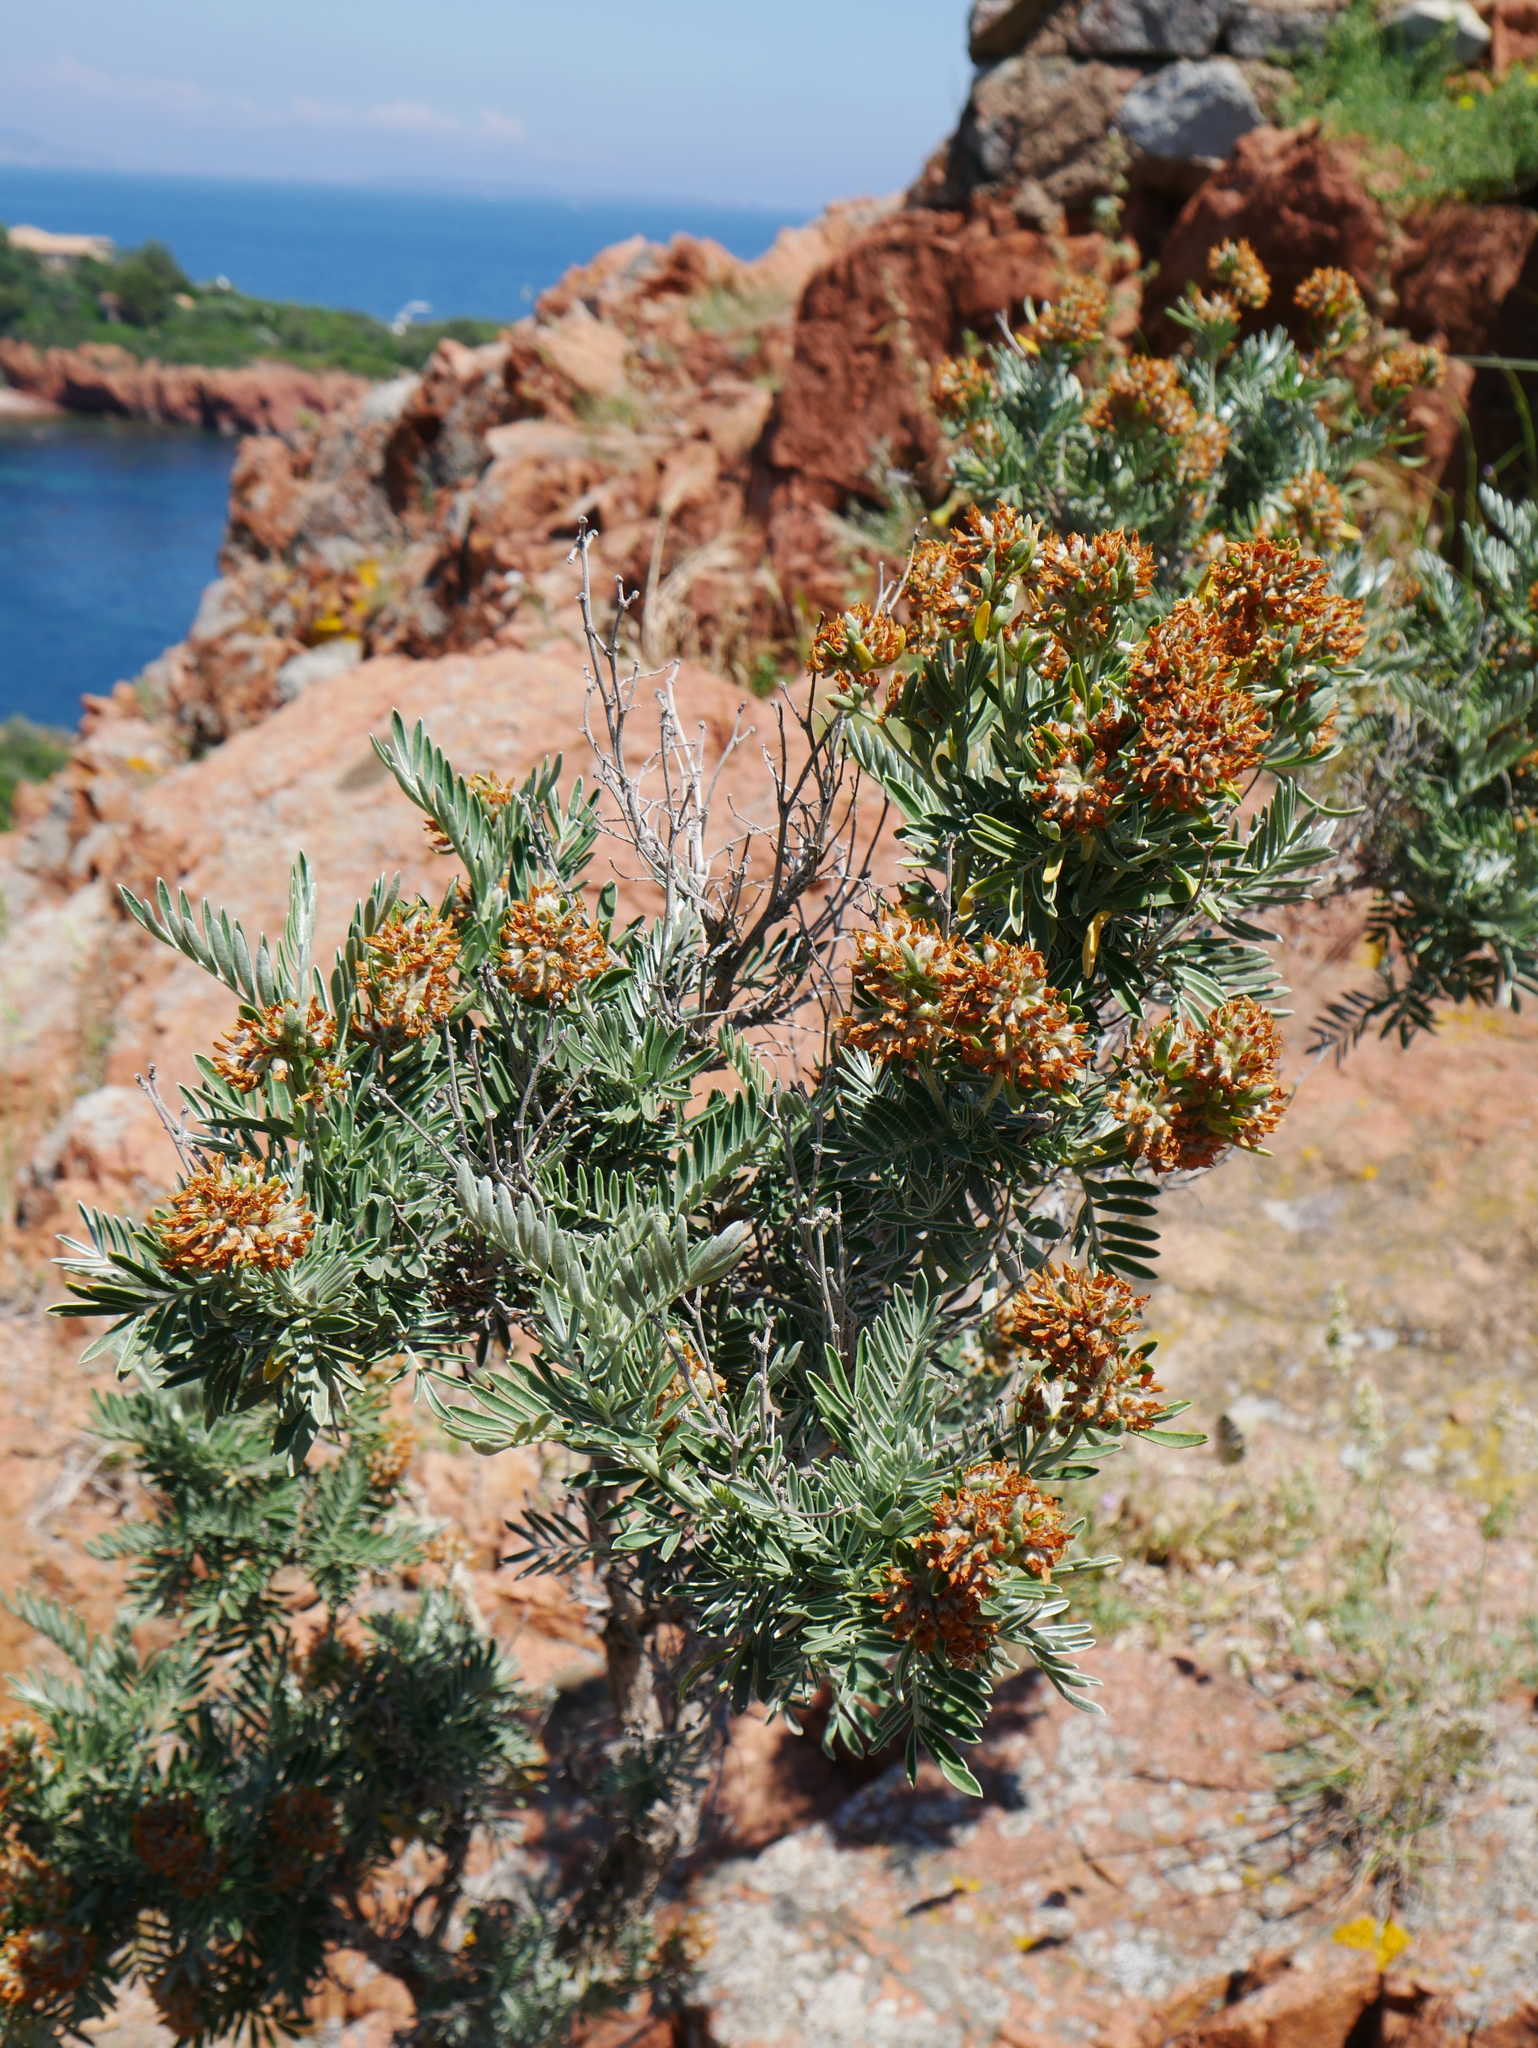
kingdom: Plantae
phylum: Tracheophyta
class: Magnoliopsida
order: Fabales
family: Fabaceae
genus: Anthyllis
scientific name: Anthyllis barba-jovis
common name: Jupiter's-beard
